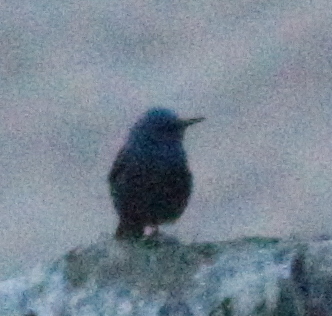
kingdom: Animalia
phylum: Chordata
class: Aves
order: Passeriformes
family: Muscicapidae
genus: Monticola
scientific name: Monticola solitarius
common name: Blue rock thrush
